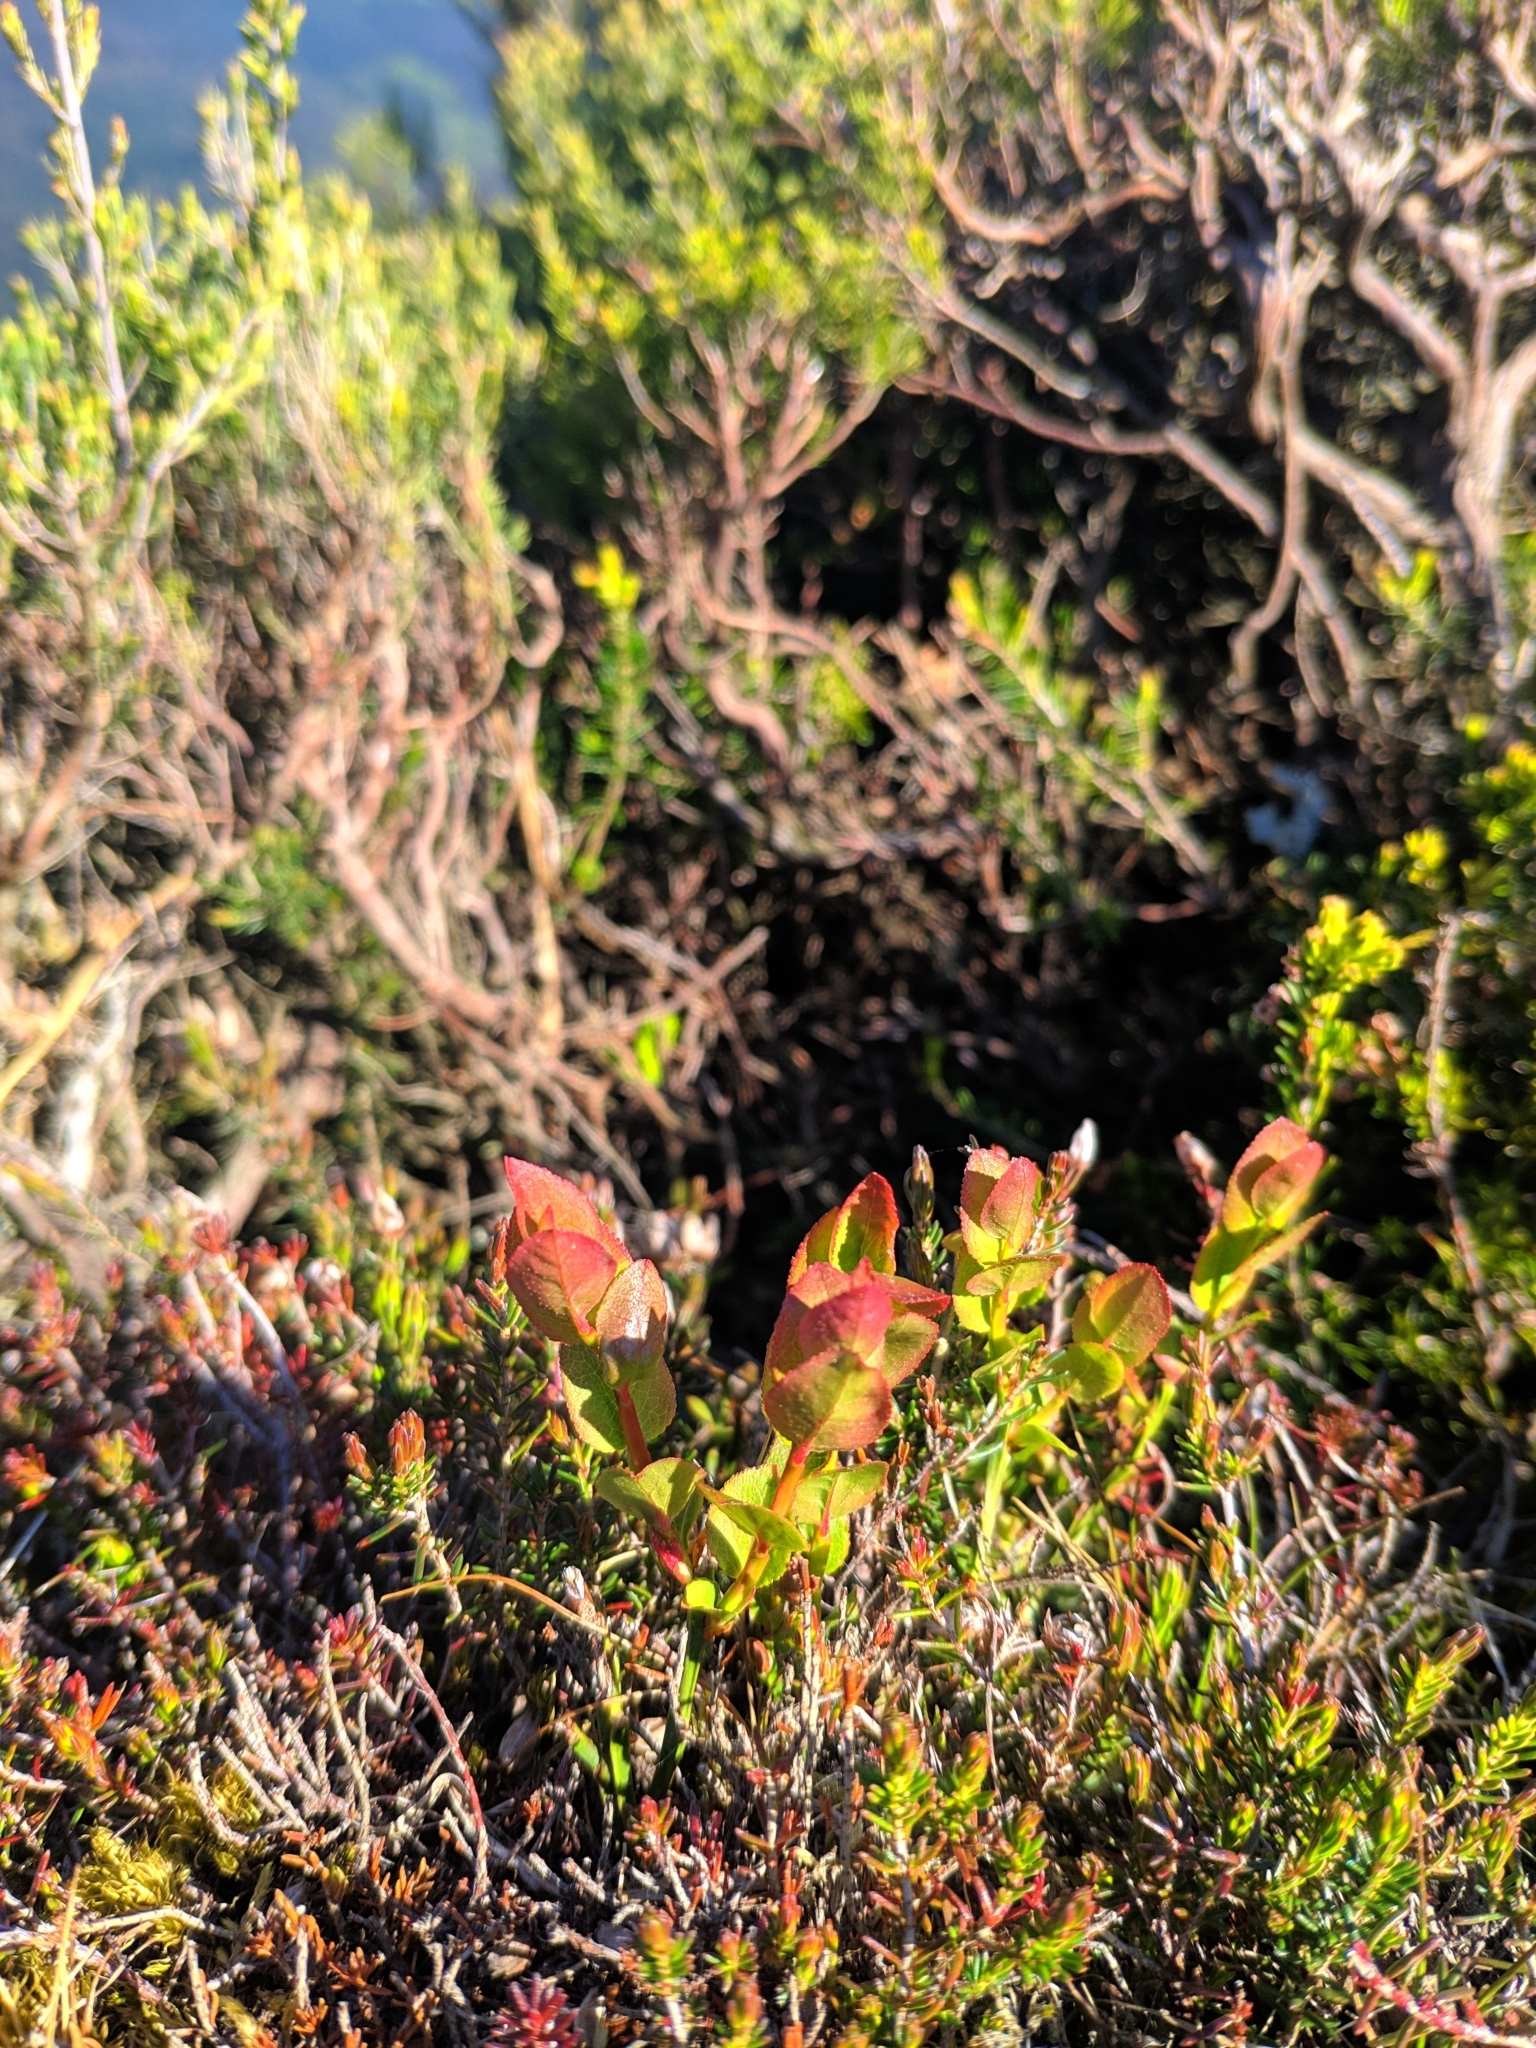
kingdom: Plantae
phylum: Tracheophyta
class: Magnoliopsida
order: Ericales
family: Ericaceae
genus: Vaccinium
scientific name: Vaccinium myrtillus
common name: Bilberry
